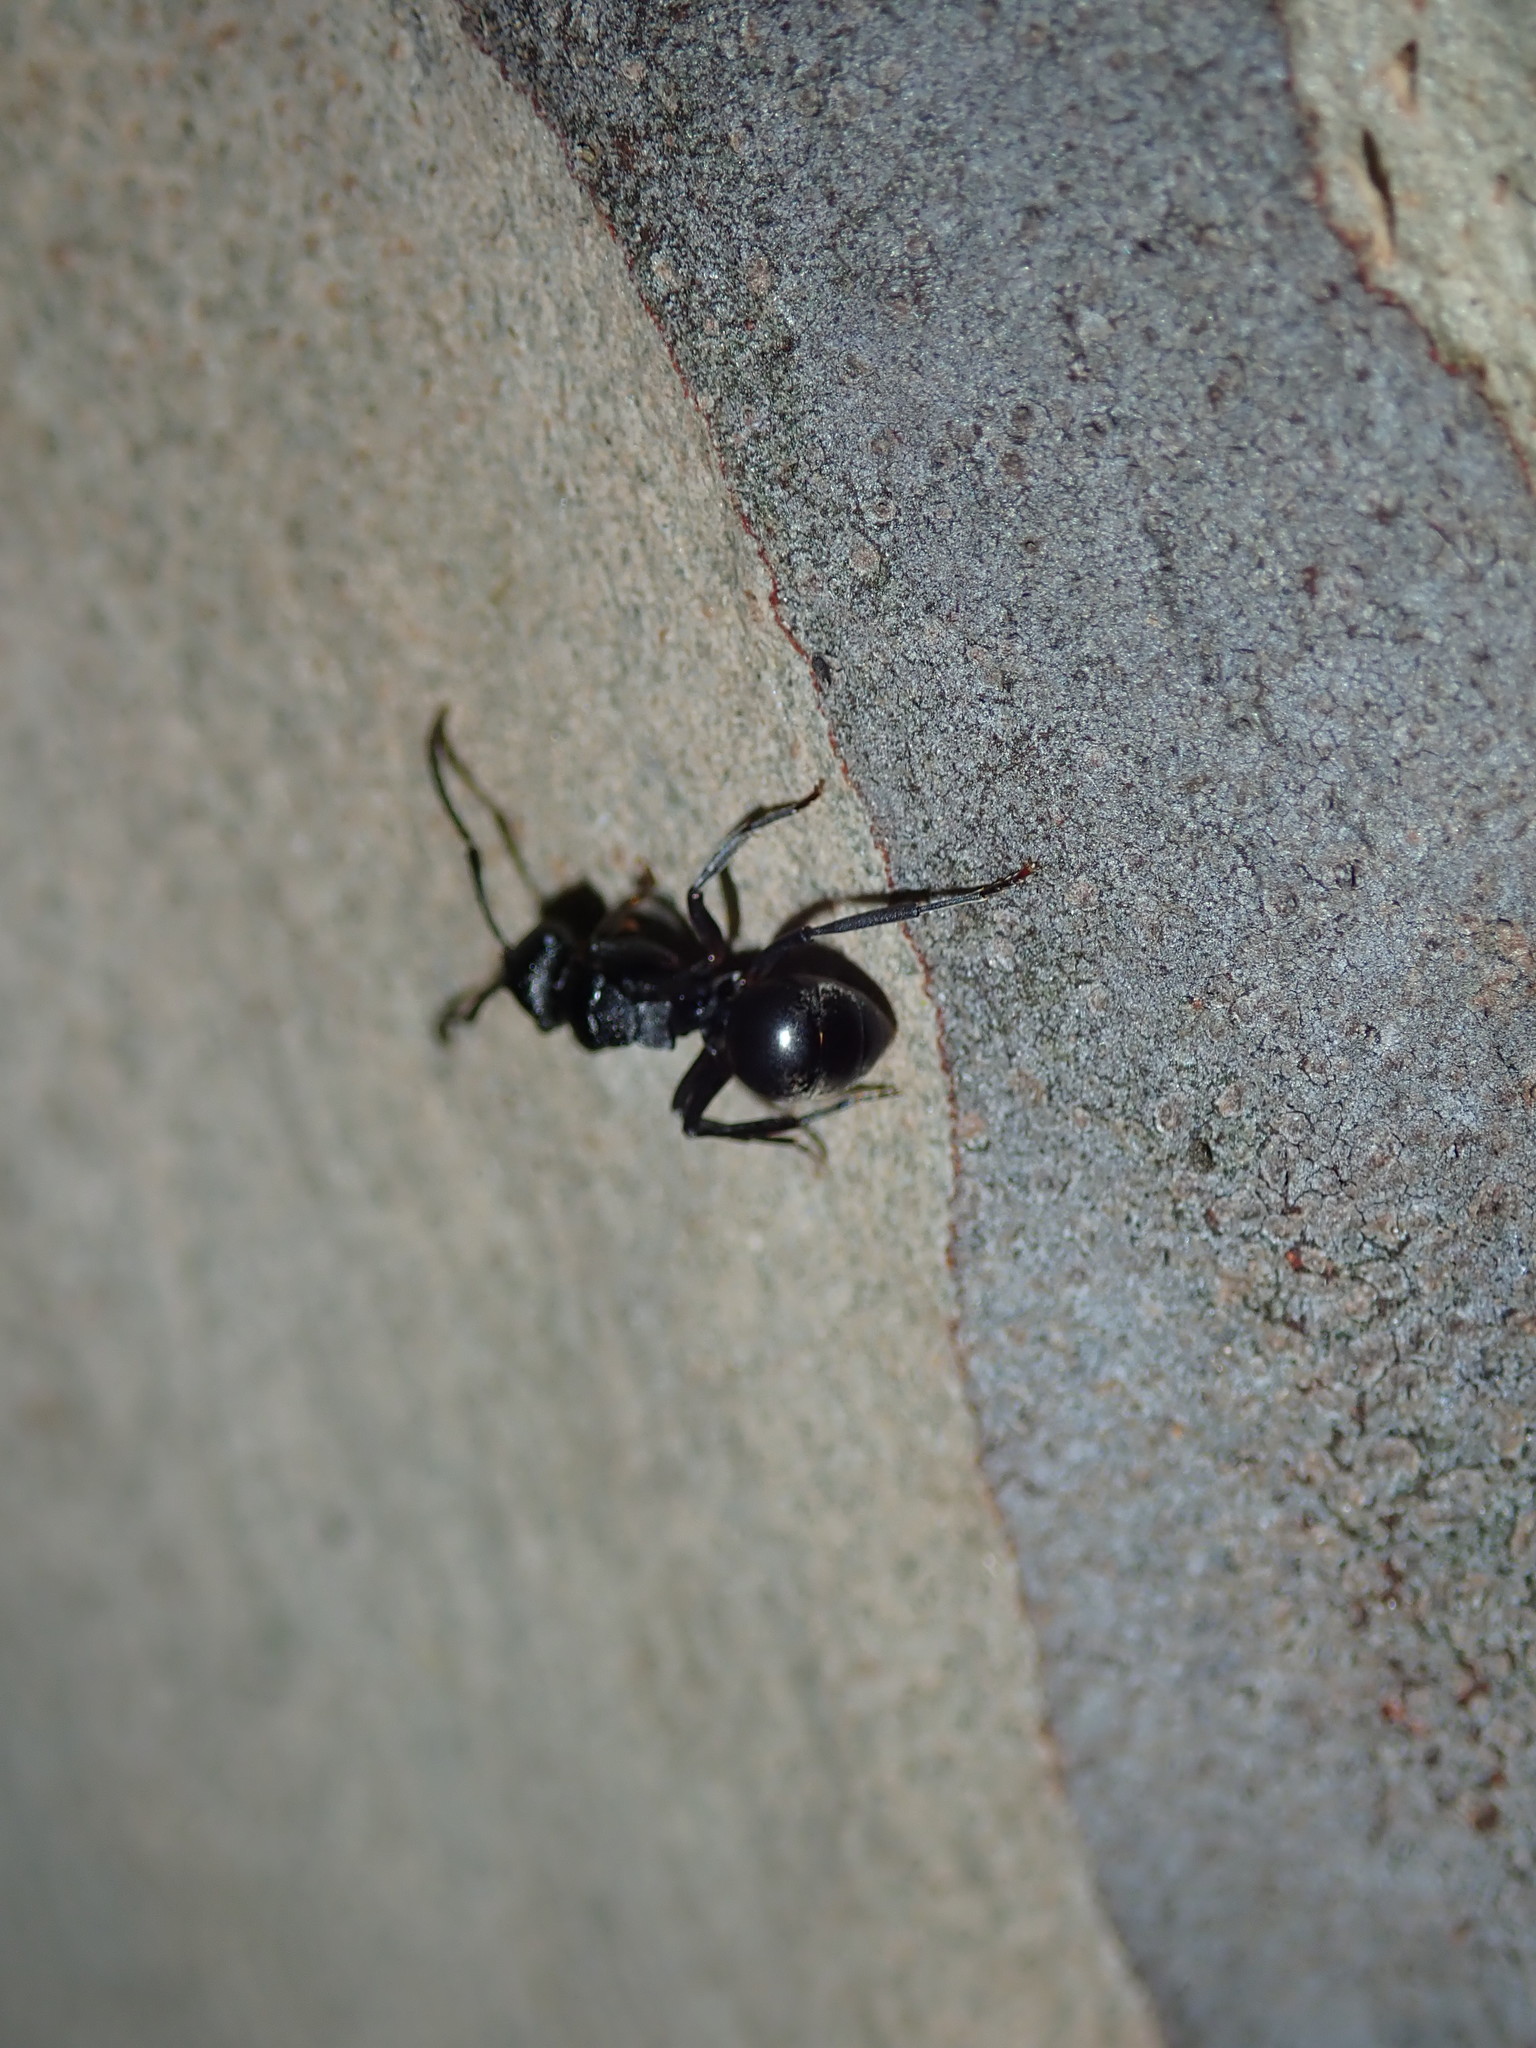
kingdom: Animalia
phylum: Arthropoda
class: Insecta
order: Hymenoptera
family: Formicidae
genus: Polyrhachis
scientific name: Polyrhachis phryne
